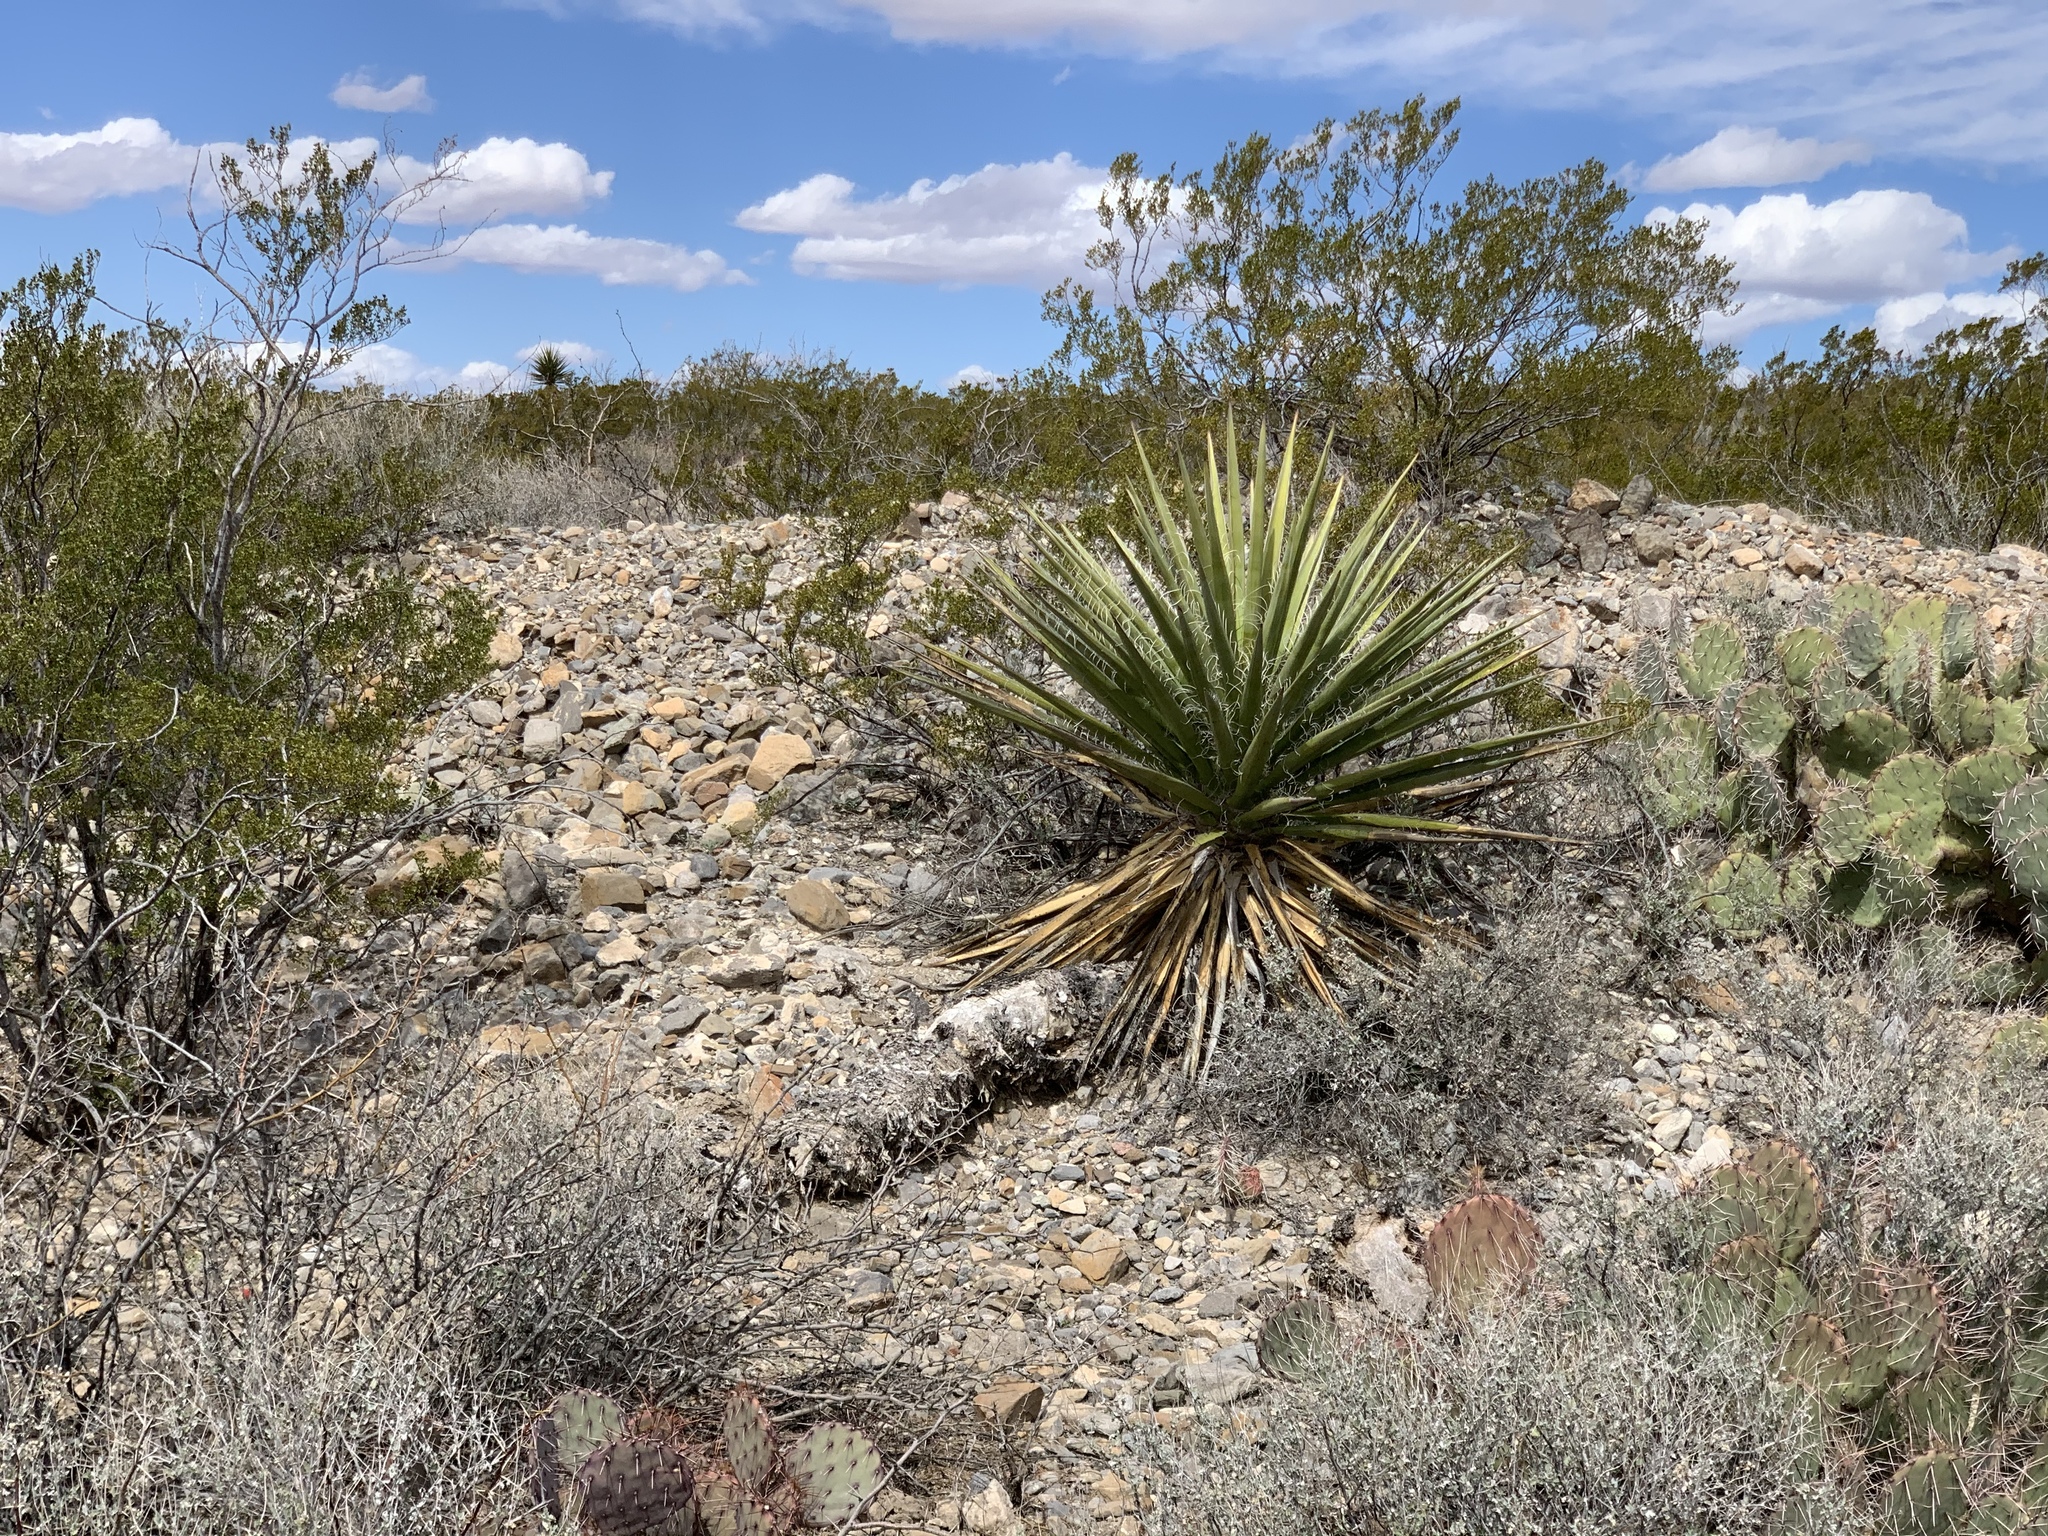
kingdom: Plantae
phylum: Tracheophyta
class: Liliopsida
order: Asparagales
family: Asparagaceae
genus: Yucca
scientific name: Yucca treculiana
